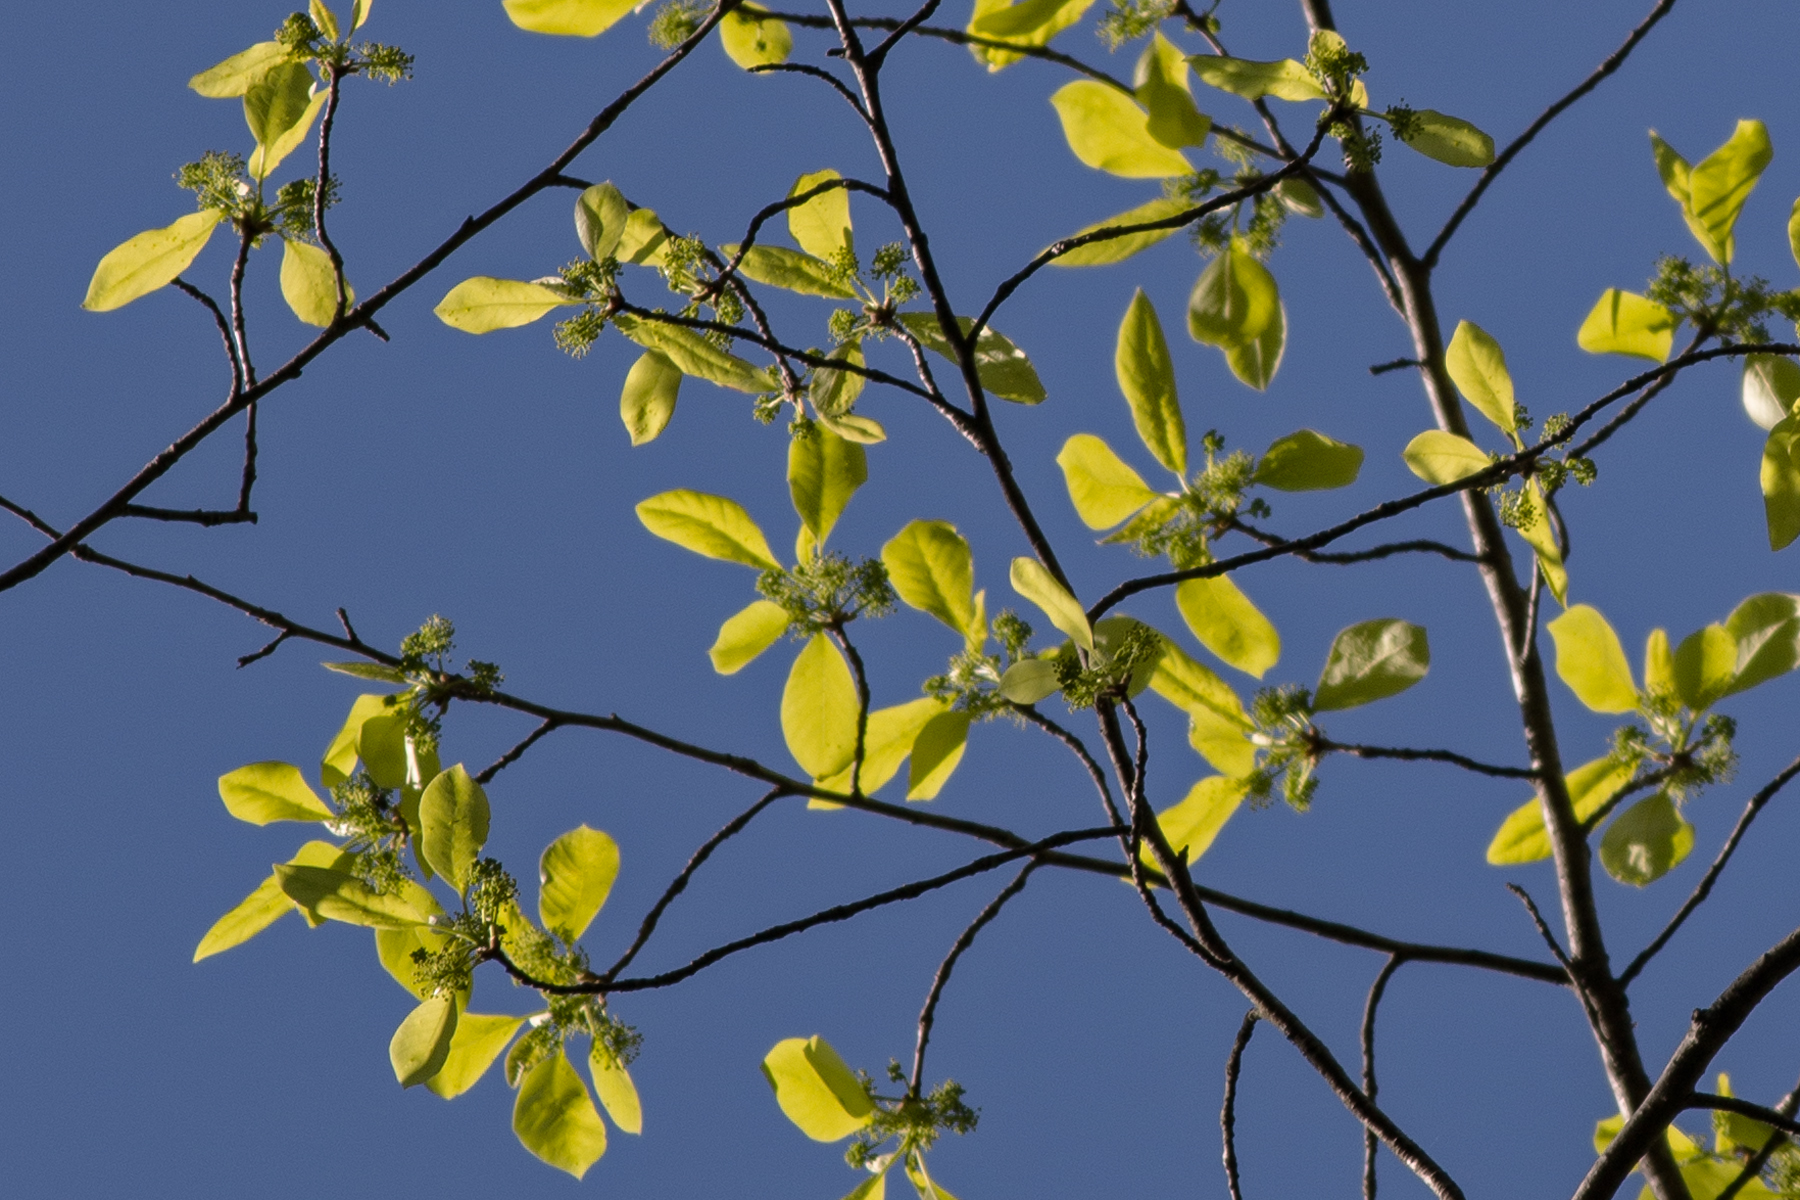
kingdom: Plantae
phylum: Tracheophyta
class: Magnoliopsida
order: Cornales
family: Nyssaceae
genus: Nyssa
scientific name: Nyssa sylvatica
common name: Black tupelo
